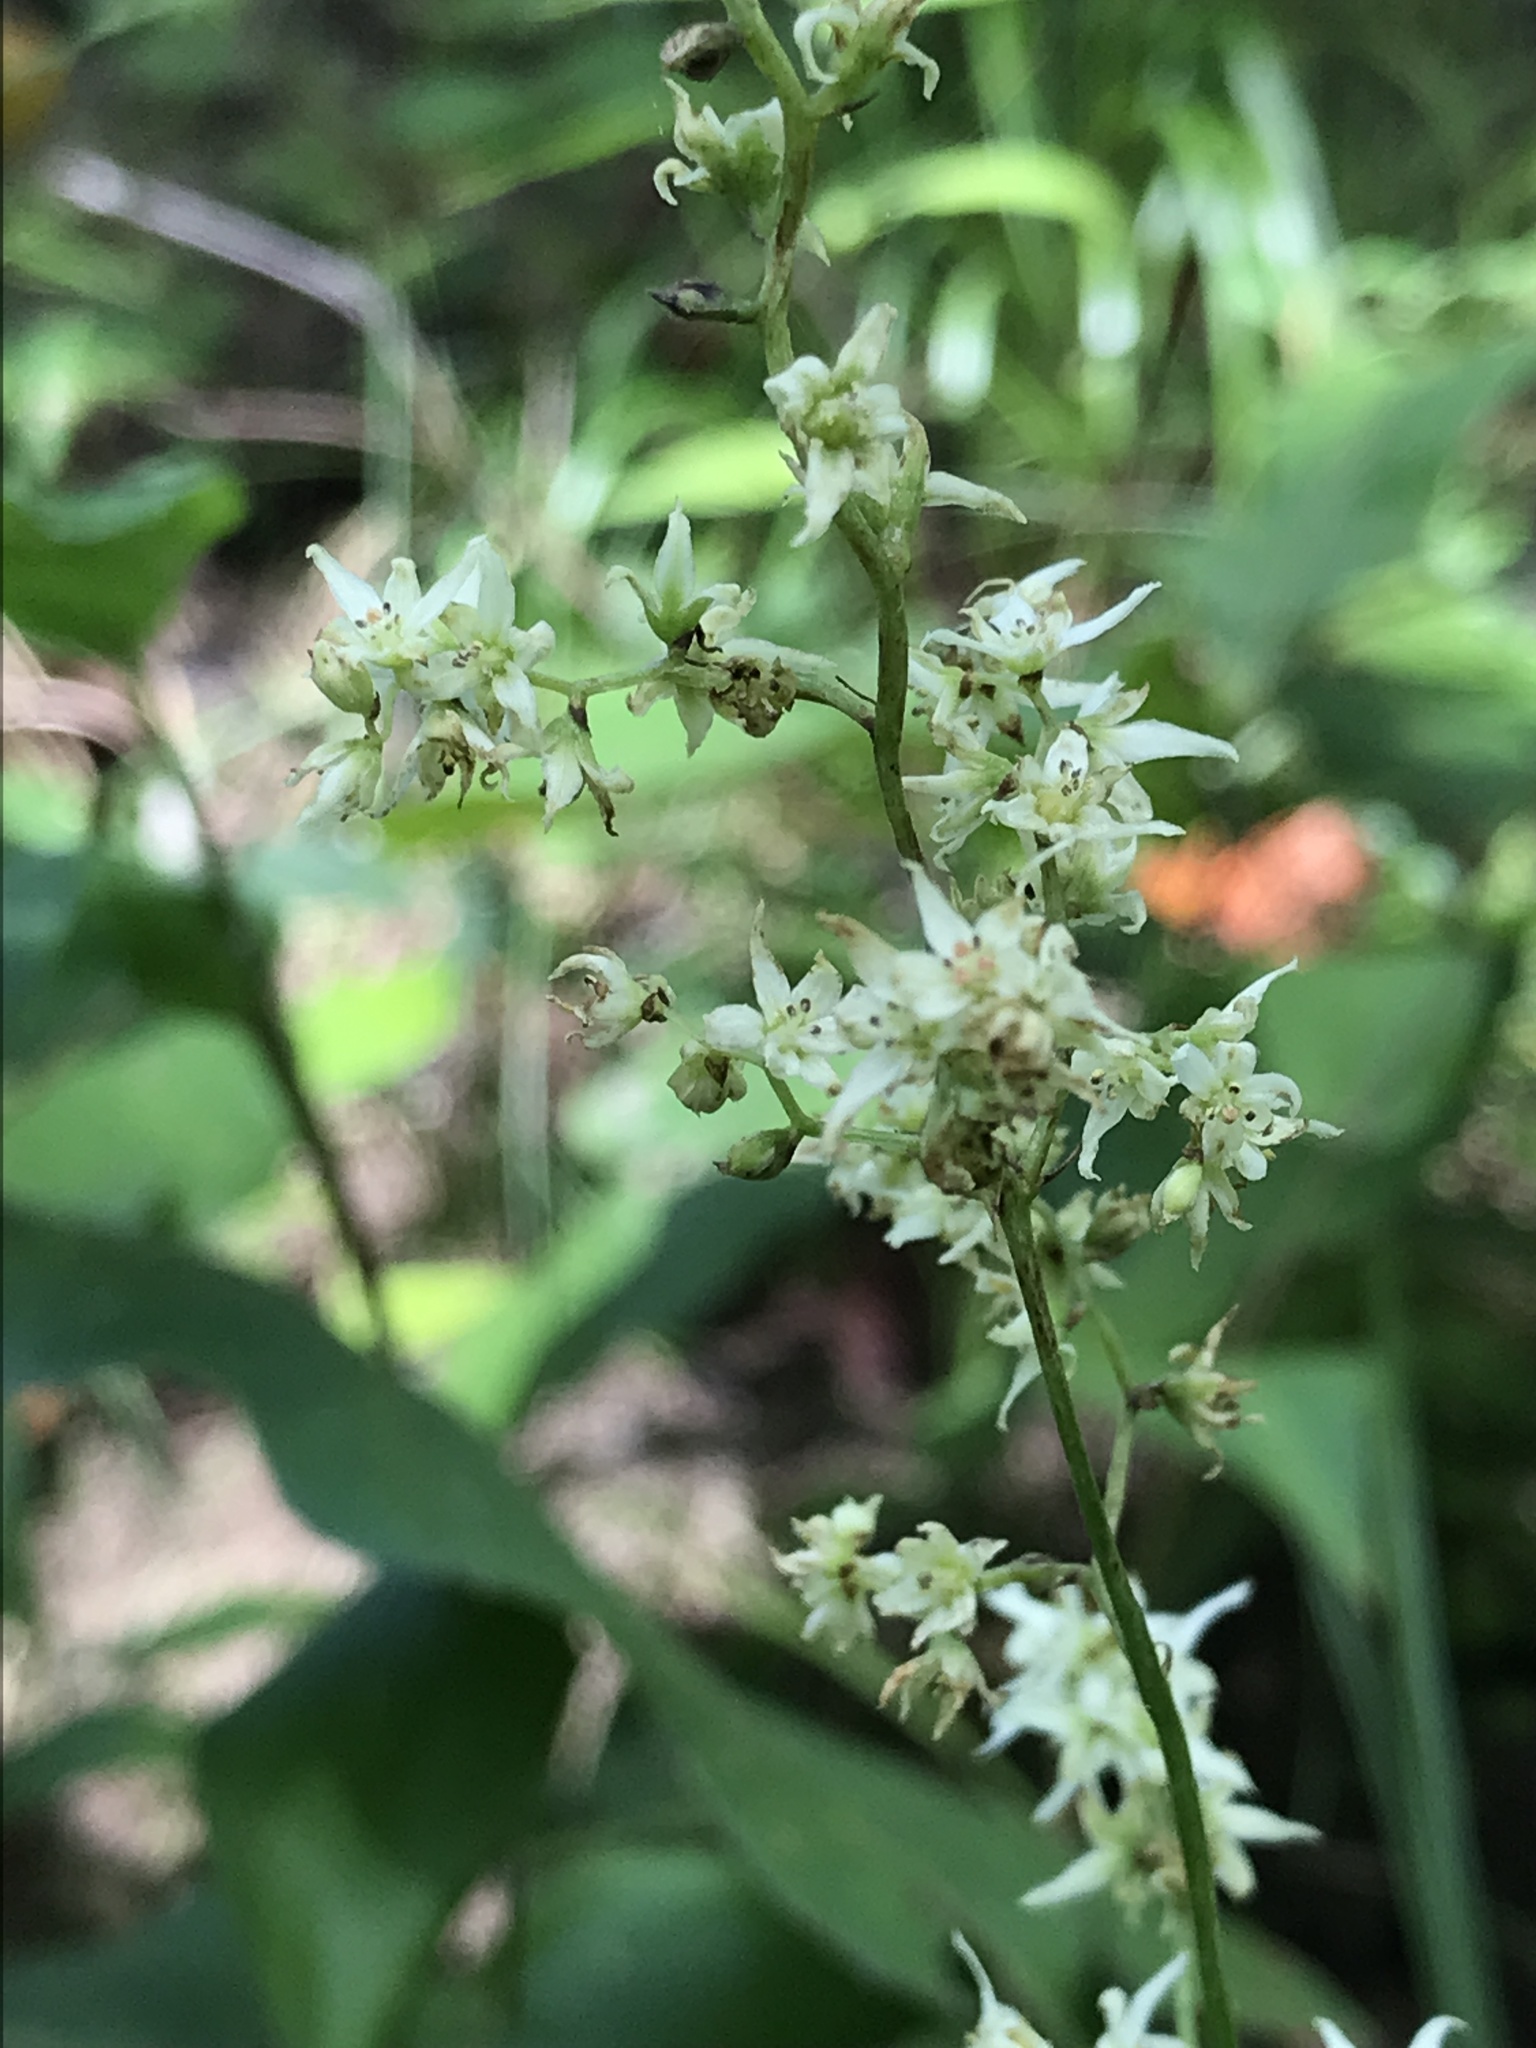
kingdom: Plantae
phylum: Tracheophyta
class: Liliopsida
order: Liliales
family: Melanthiaceae
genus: Stenanthium
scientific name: Stenanthium gramineum
